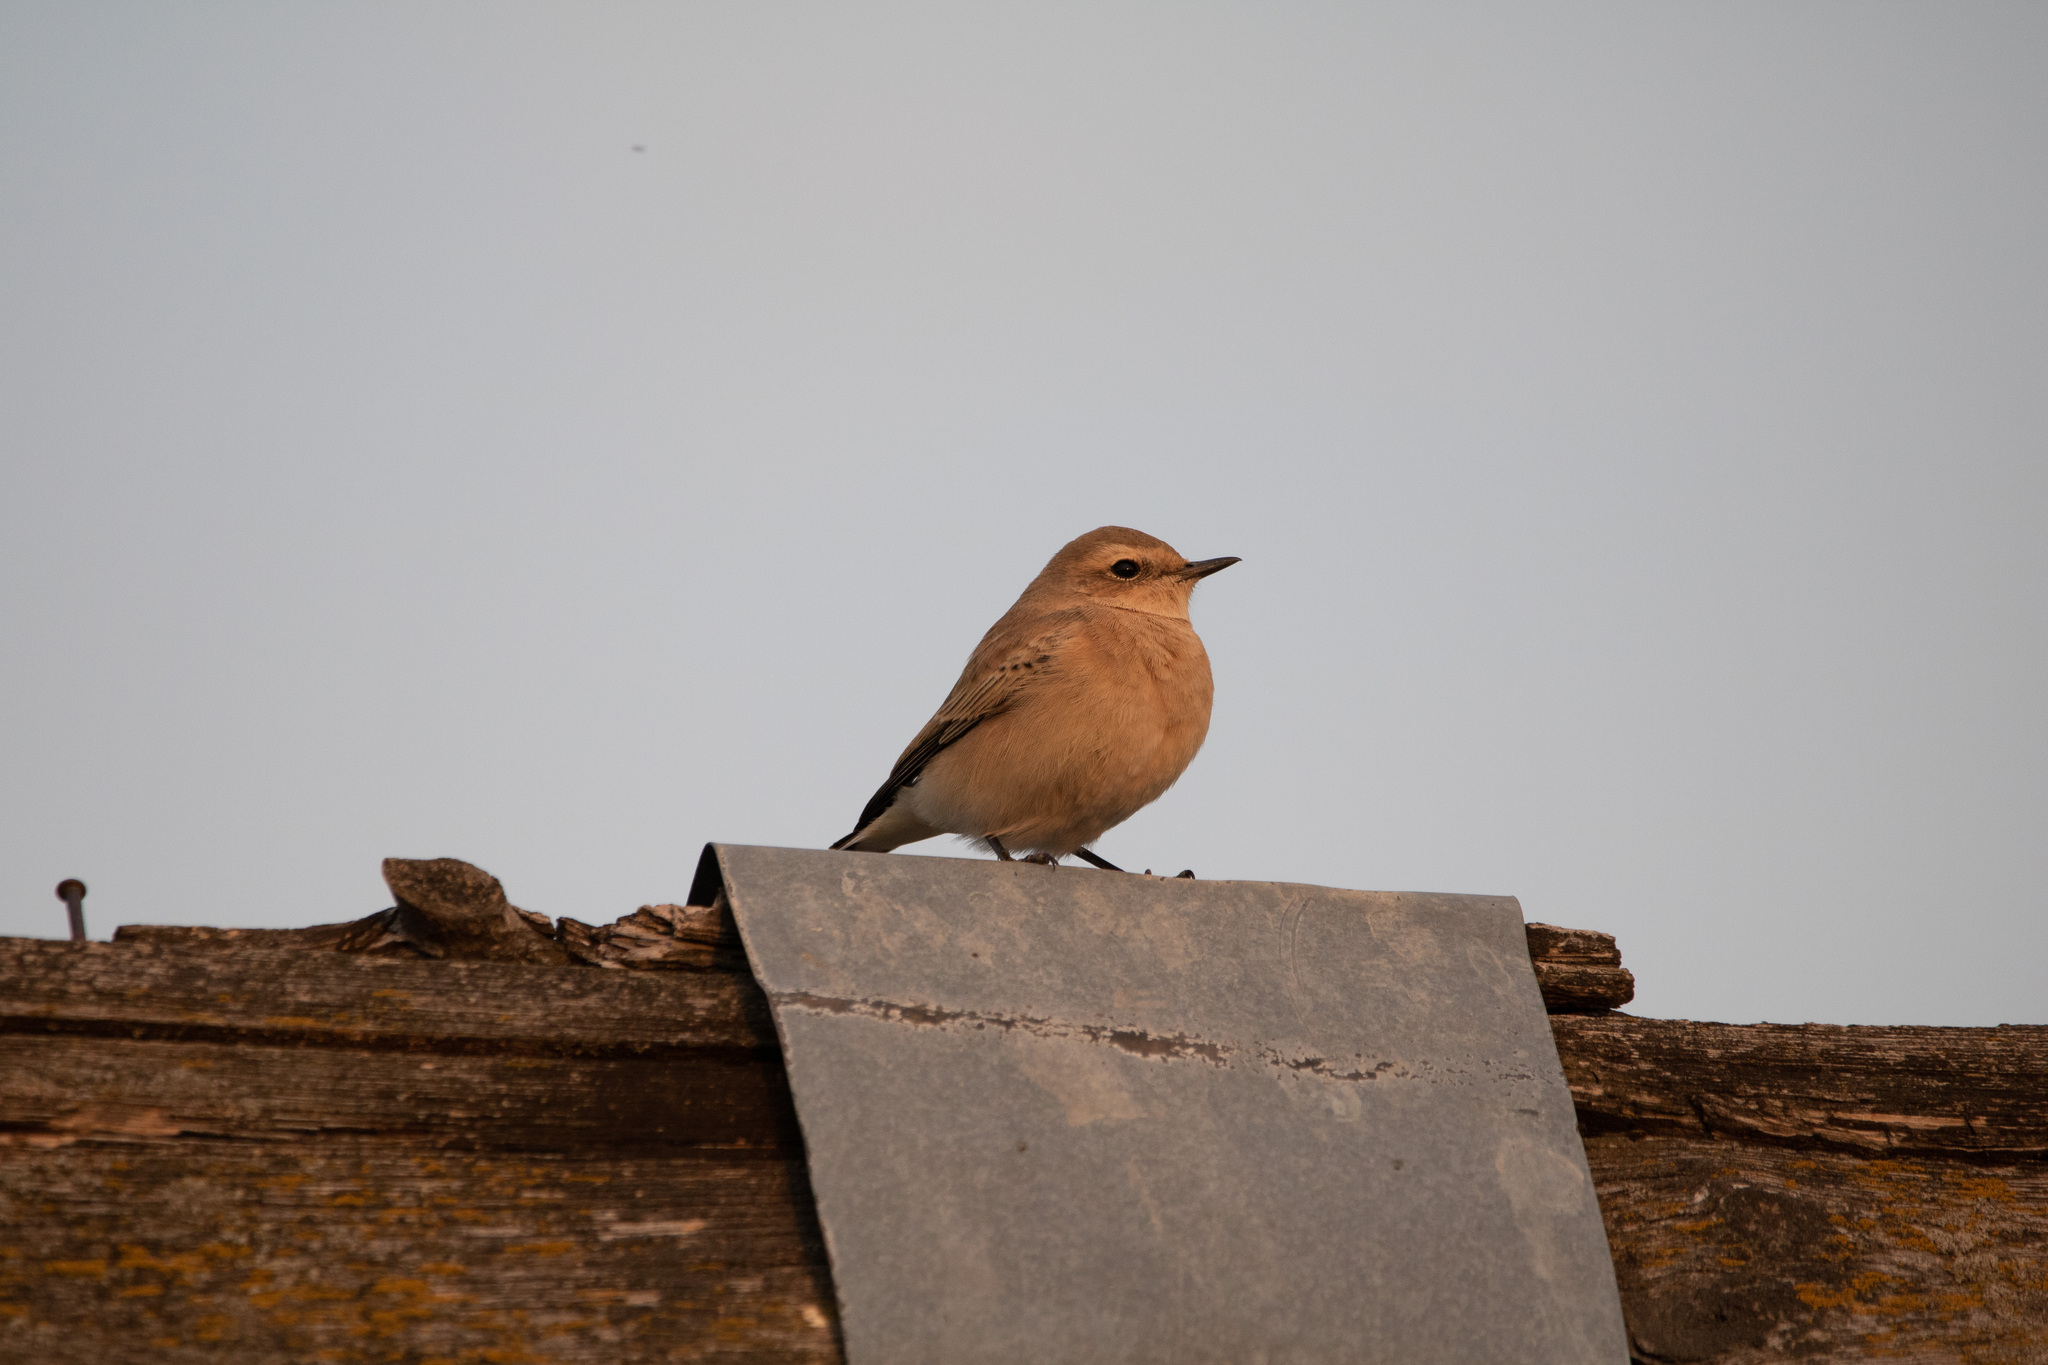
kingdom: Animalia
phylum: Chordata
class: Aves
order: Passeriformes
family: Muscicapidae
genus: Oenanthe
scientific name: Oenanthe oenanthe
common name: Northern wheatear
